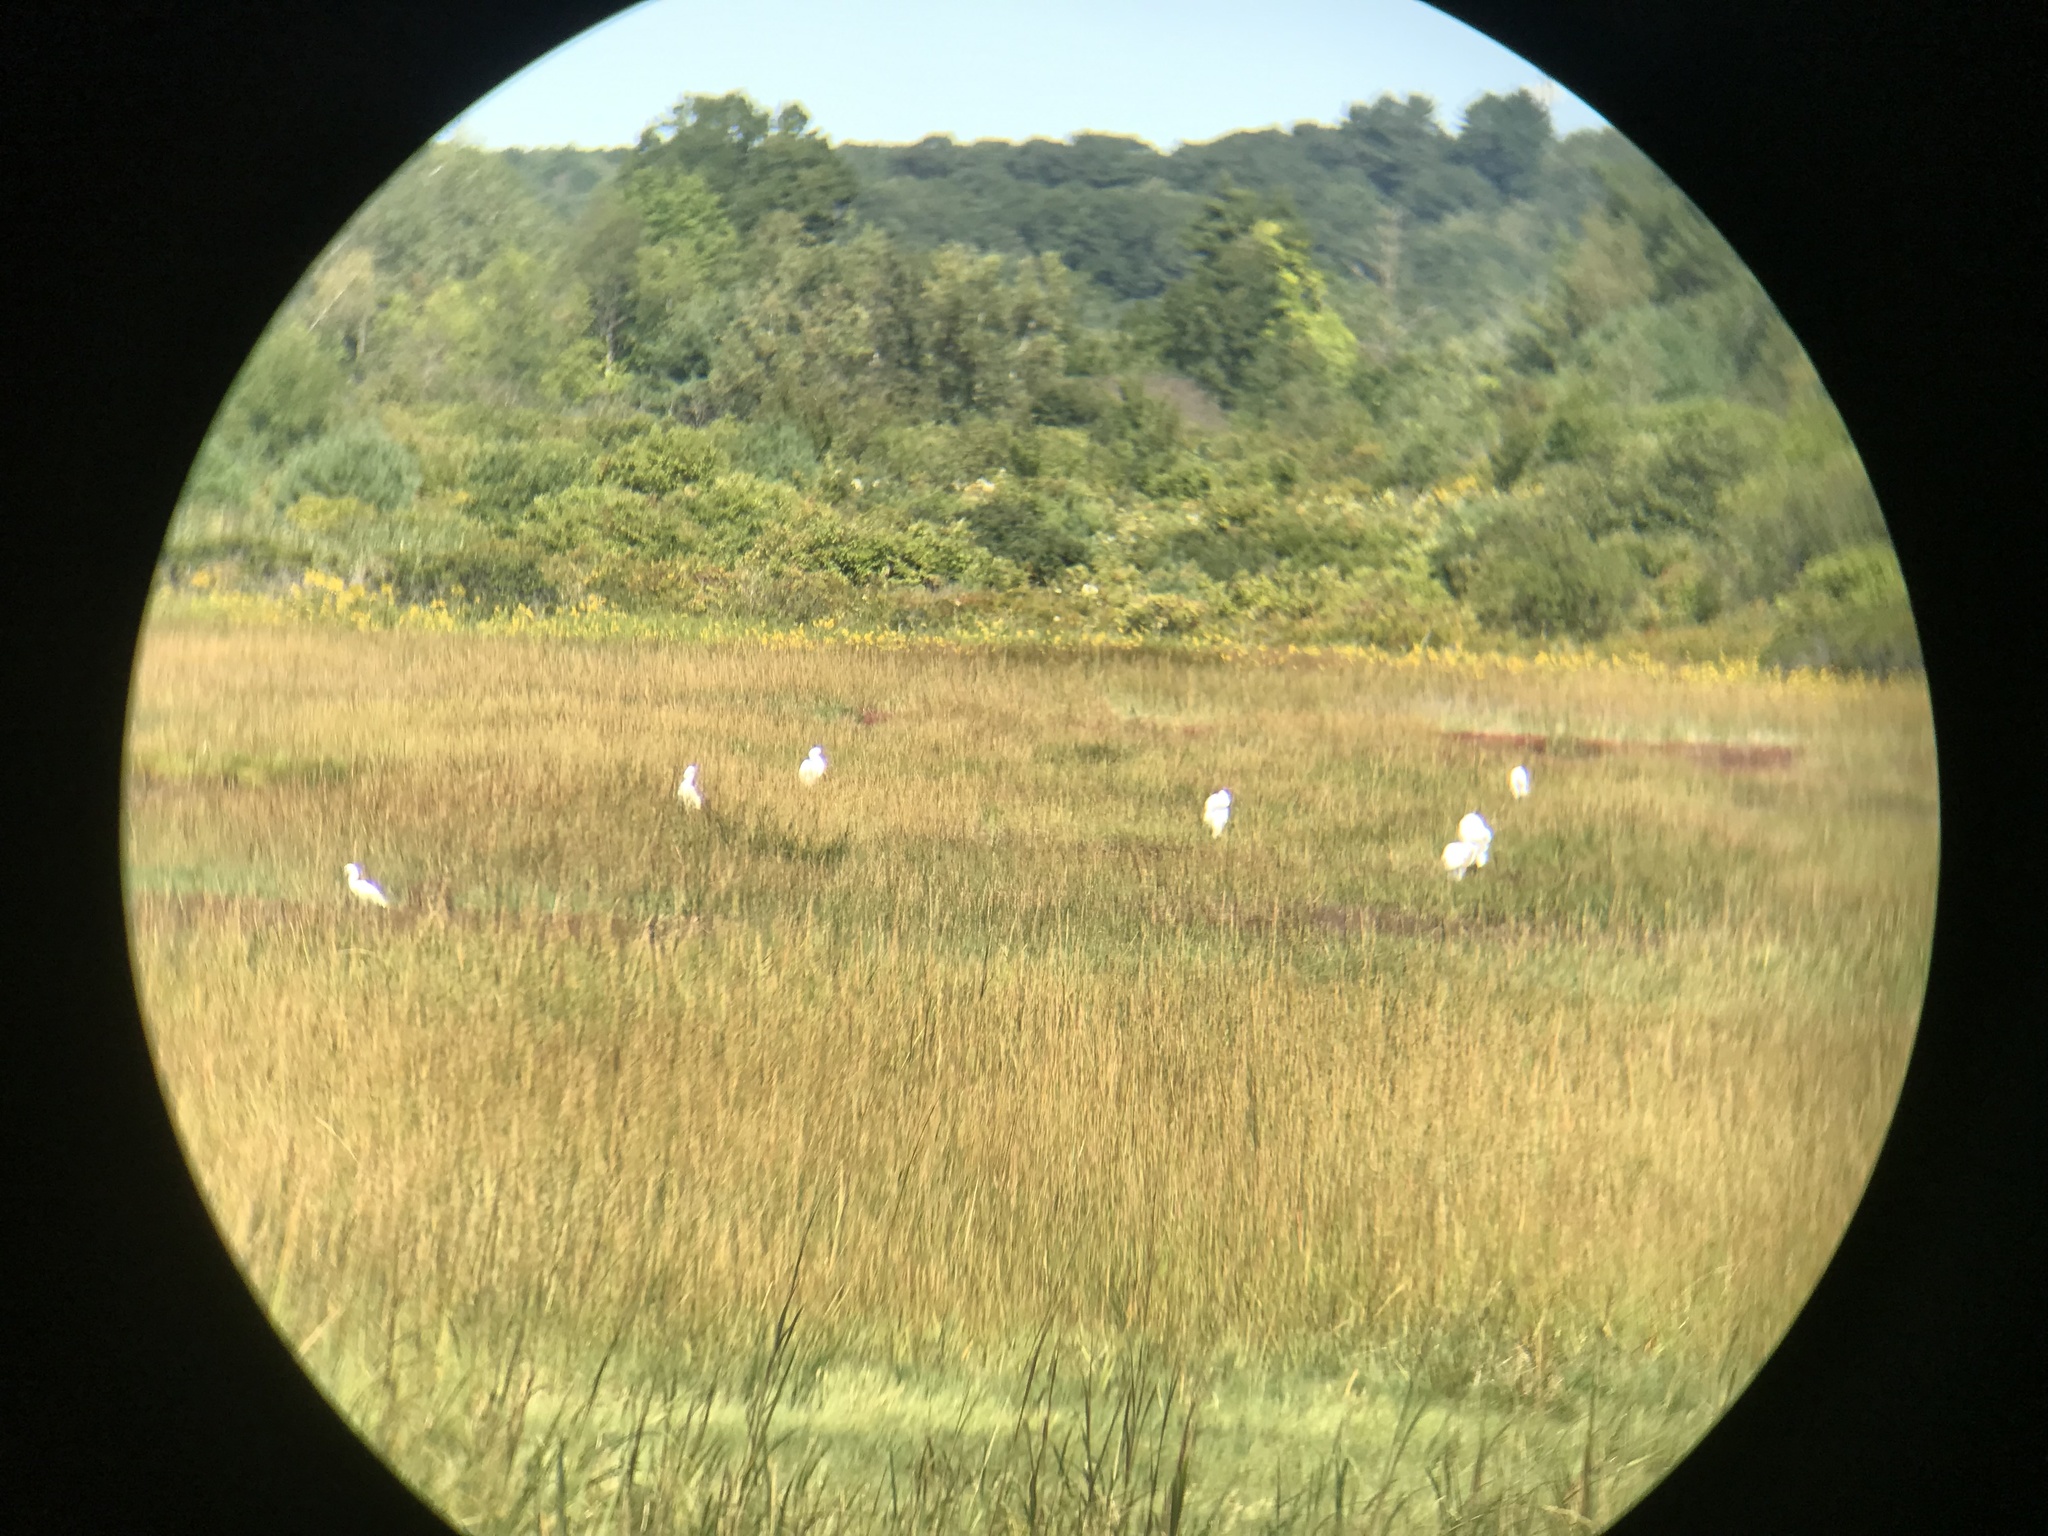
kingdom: Animalia
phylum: Chordata
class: Aves
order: Pelecaniformes
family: Ardeidae
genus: Ardea
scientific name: Ardea alba
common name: Great egret
